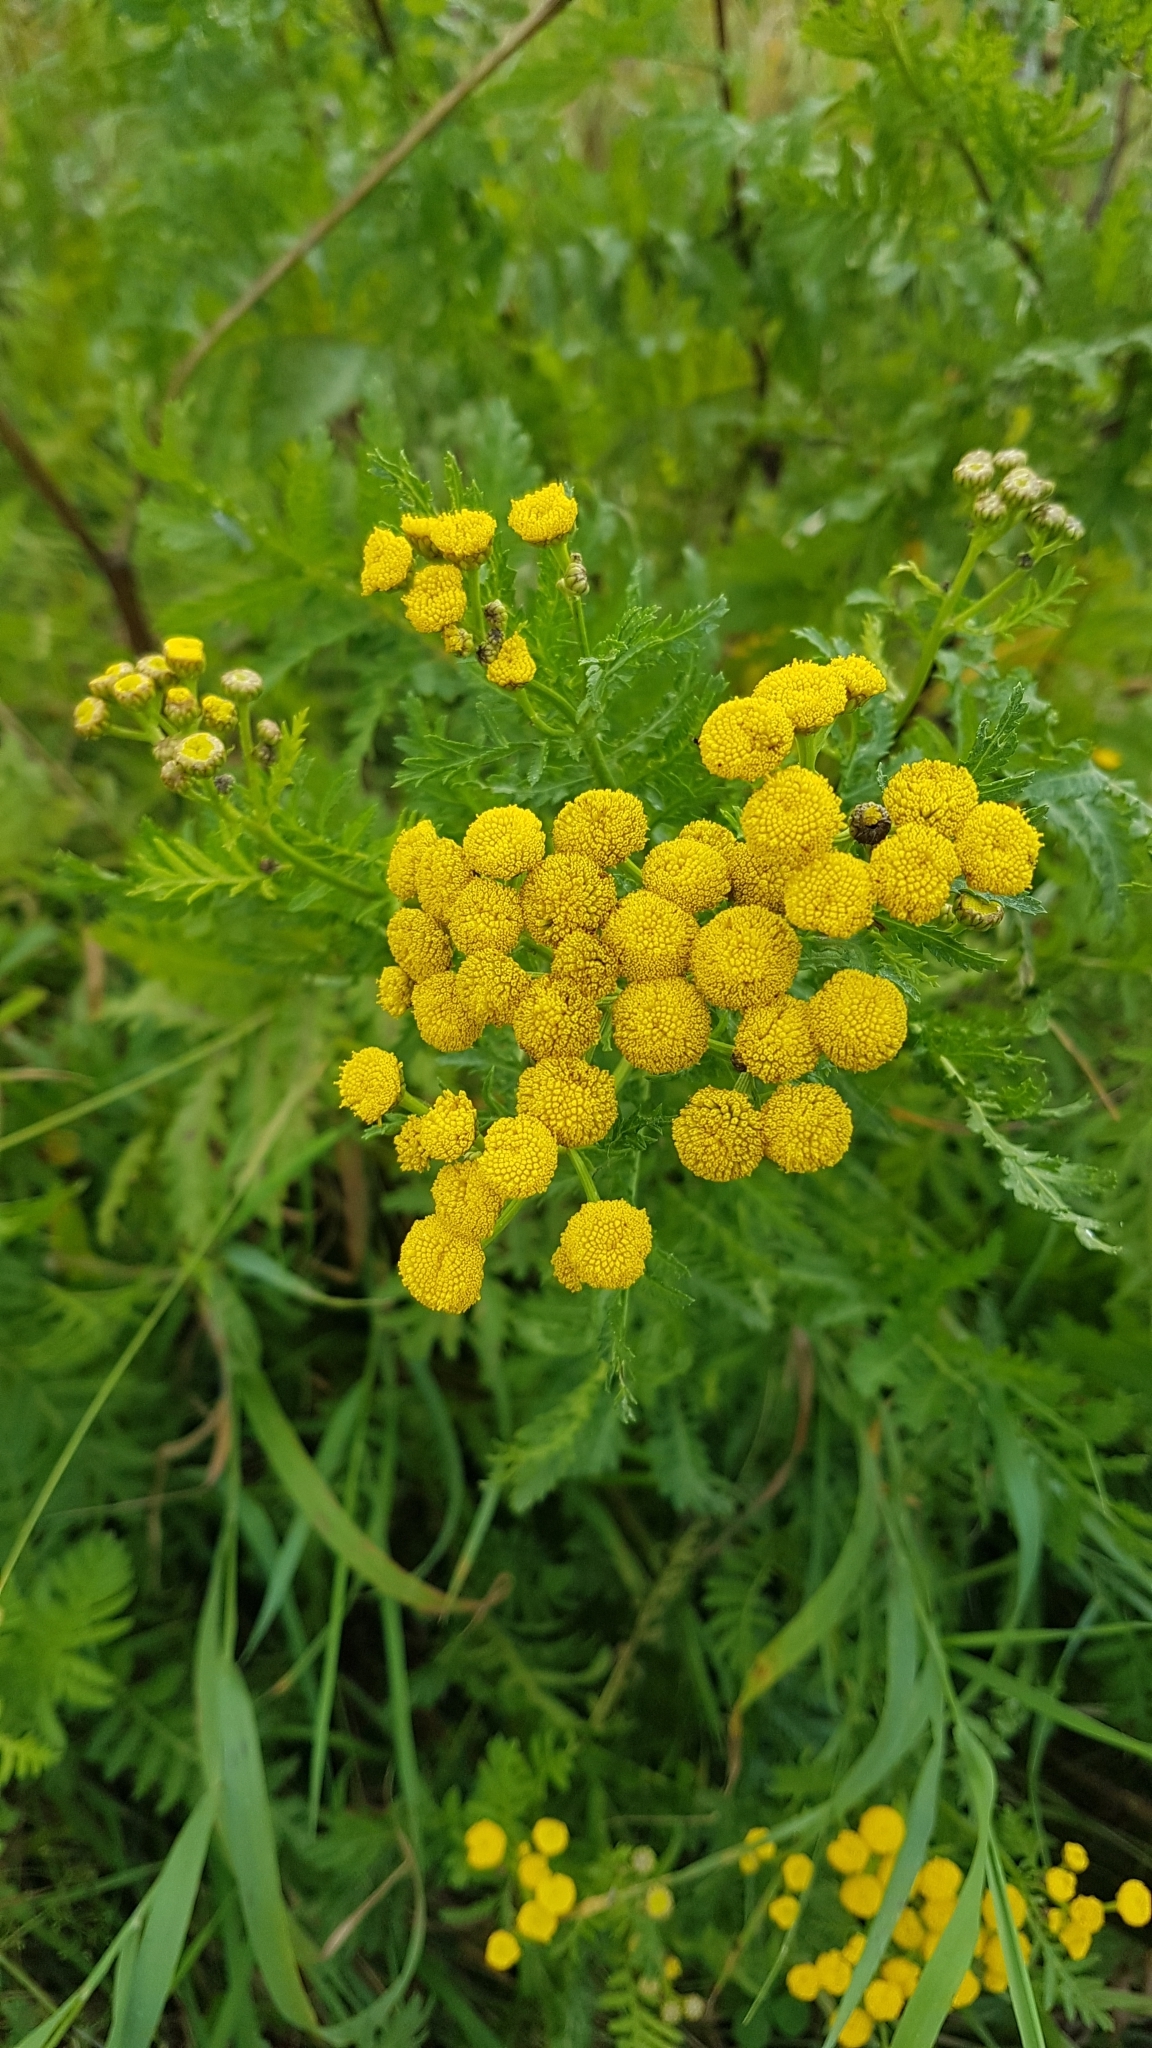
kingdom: Plantae
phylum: Tracheophyta
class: Magnoliopsida
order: Asterales
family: Asteraceae
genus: Tanacetum
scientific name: Tanacetum vulgare
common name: Common tansy
